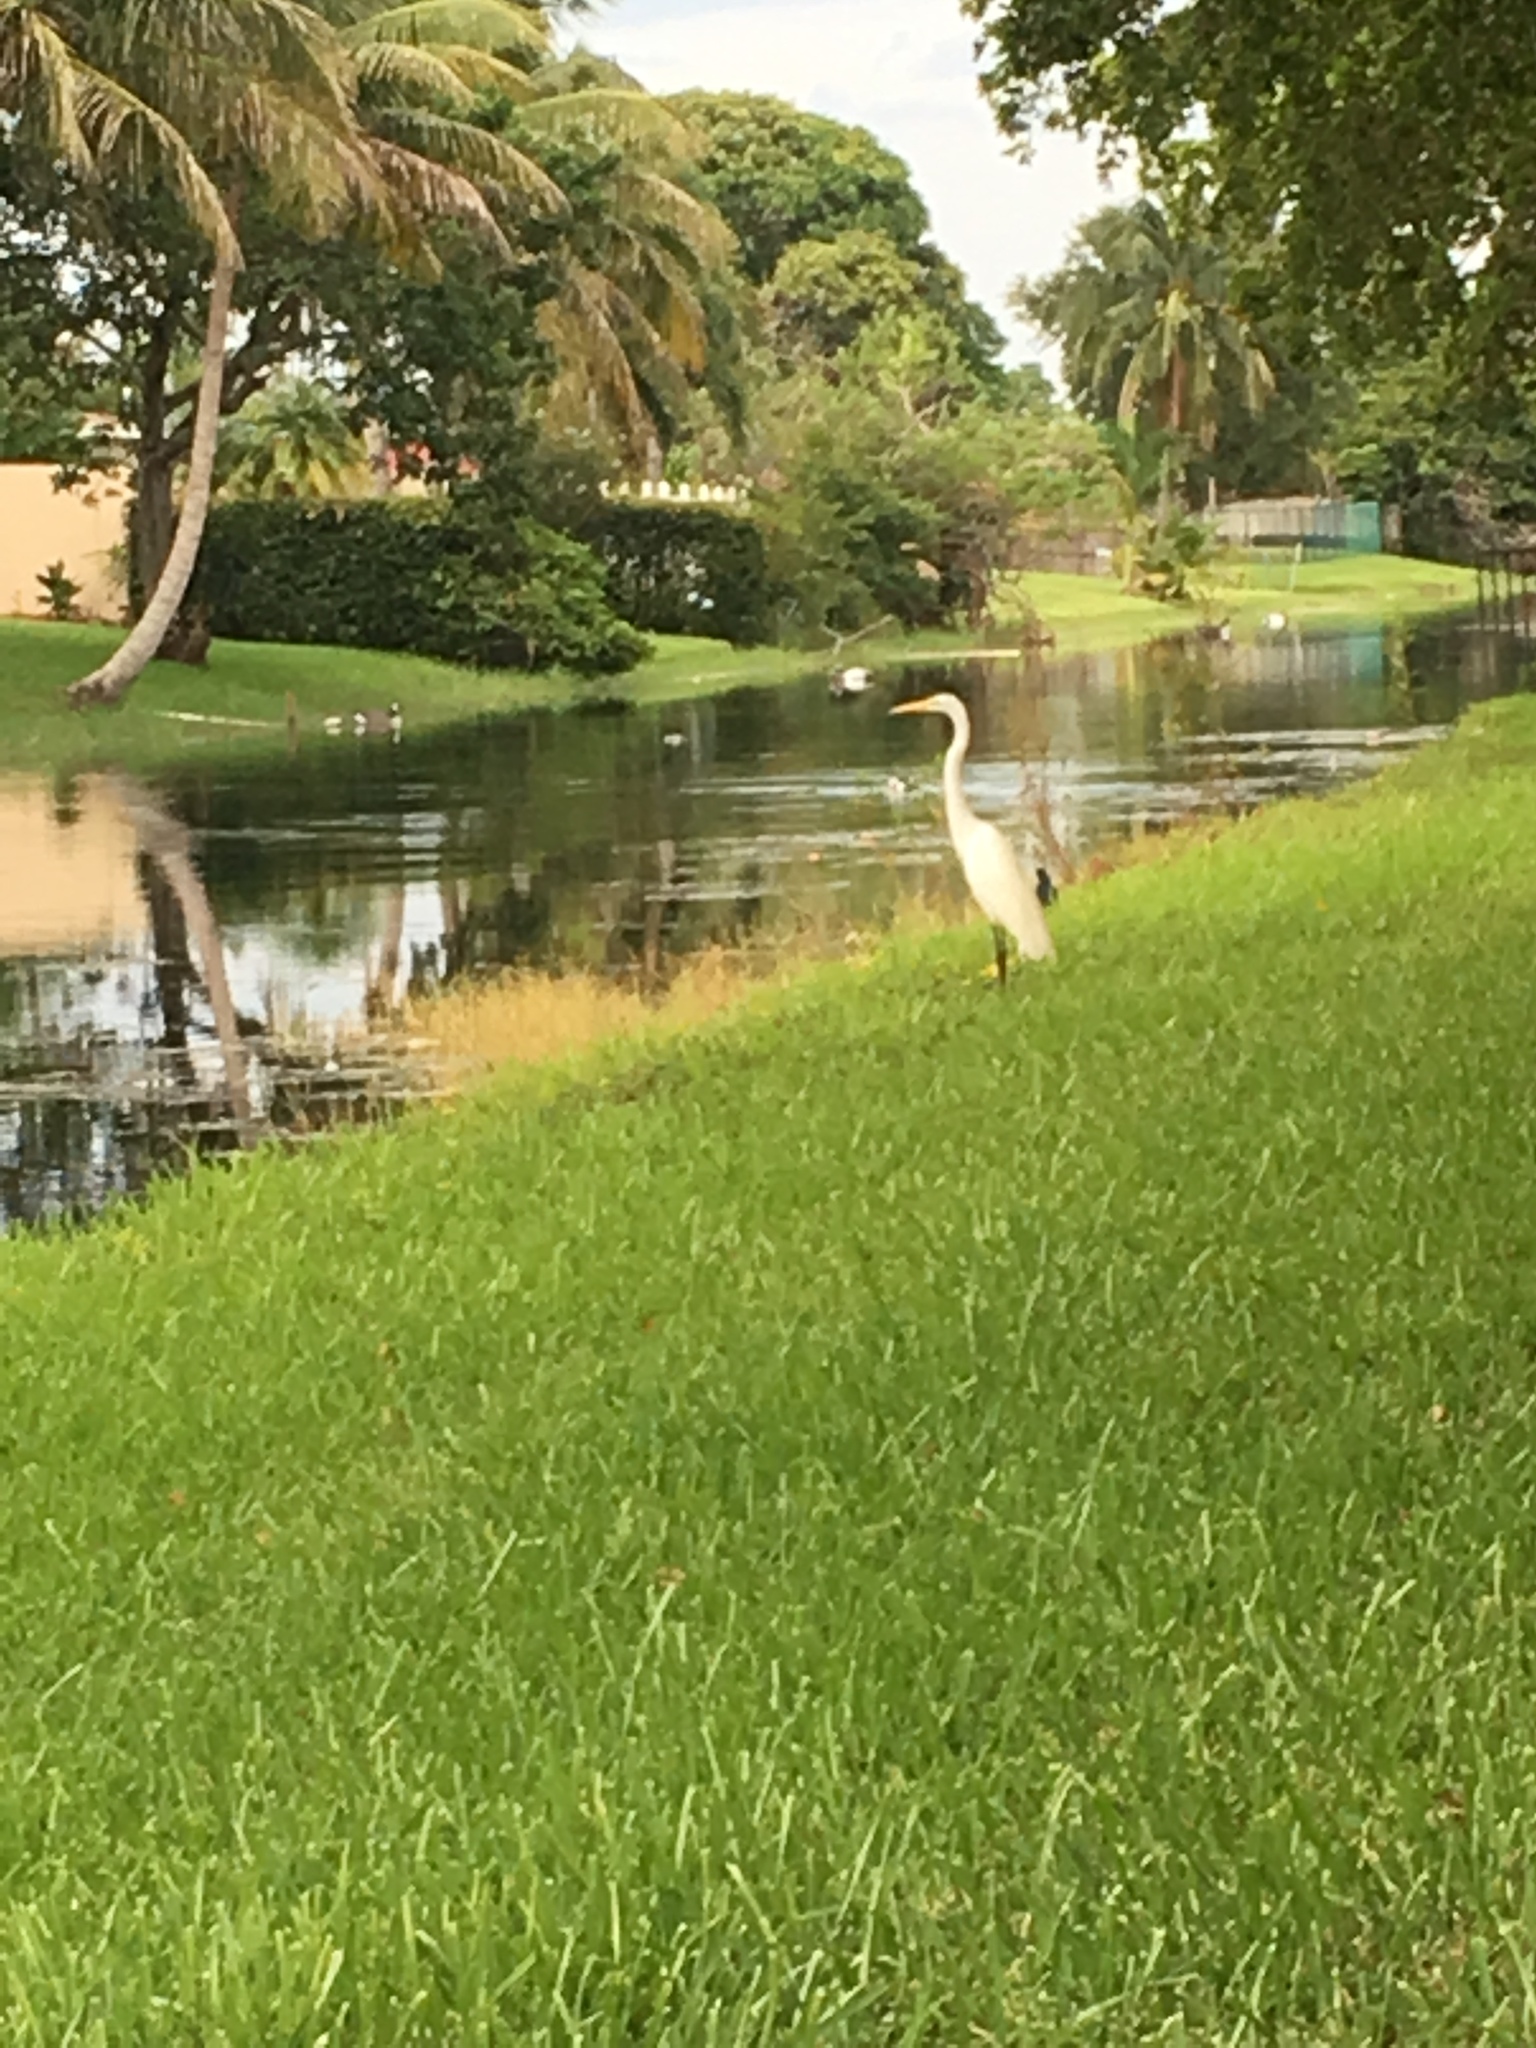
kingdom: Animalia
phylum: Chordata
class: Aves
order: Pelecaniformes
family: Ardeidae
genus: Ardea
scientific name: Ardea alba
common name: Great egret
